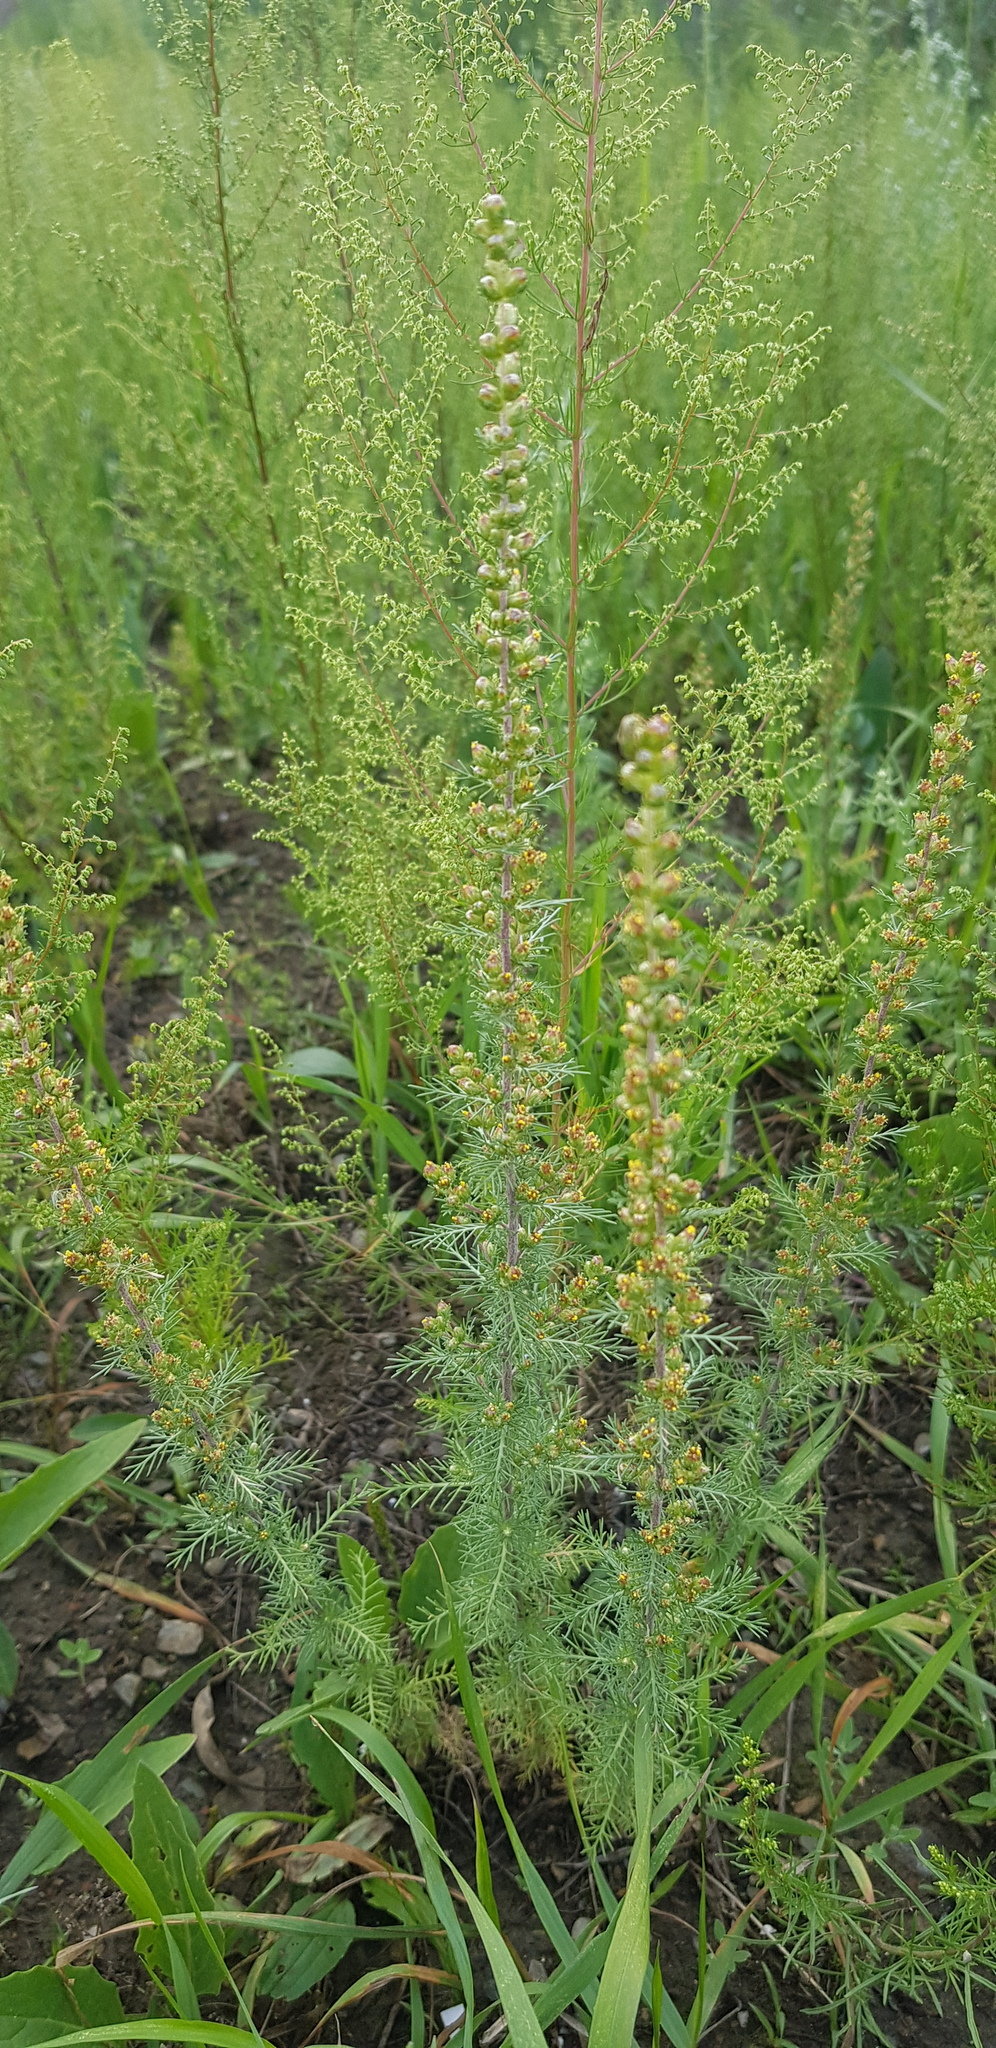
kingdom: Plantae
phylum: Tracheophyta
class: Magnoliopsida
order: Asterales
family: Asteraceae
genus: Neopallasia
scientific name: Neopallasia pectinata
